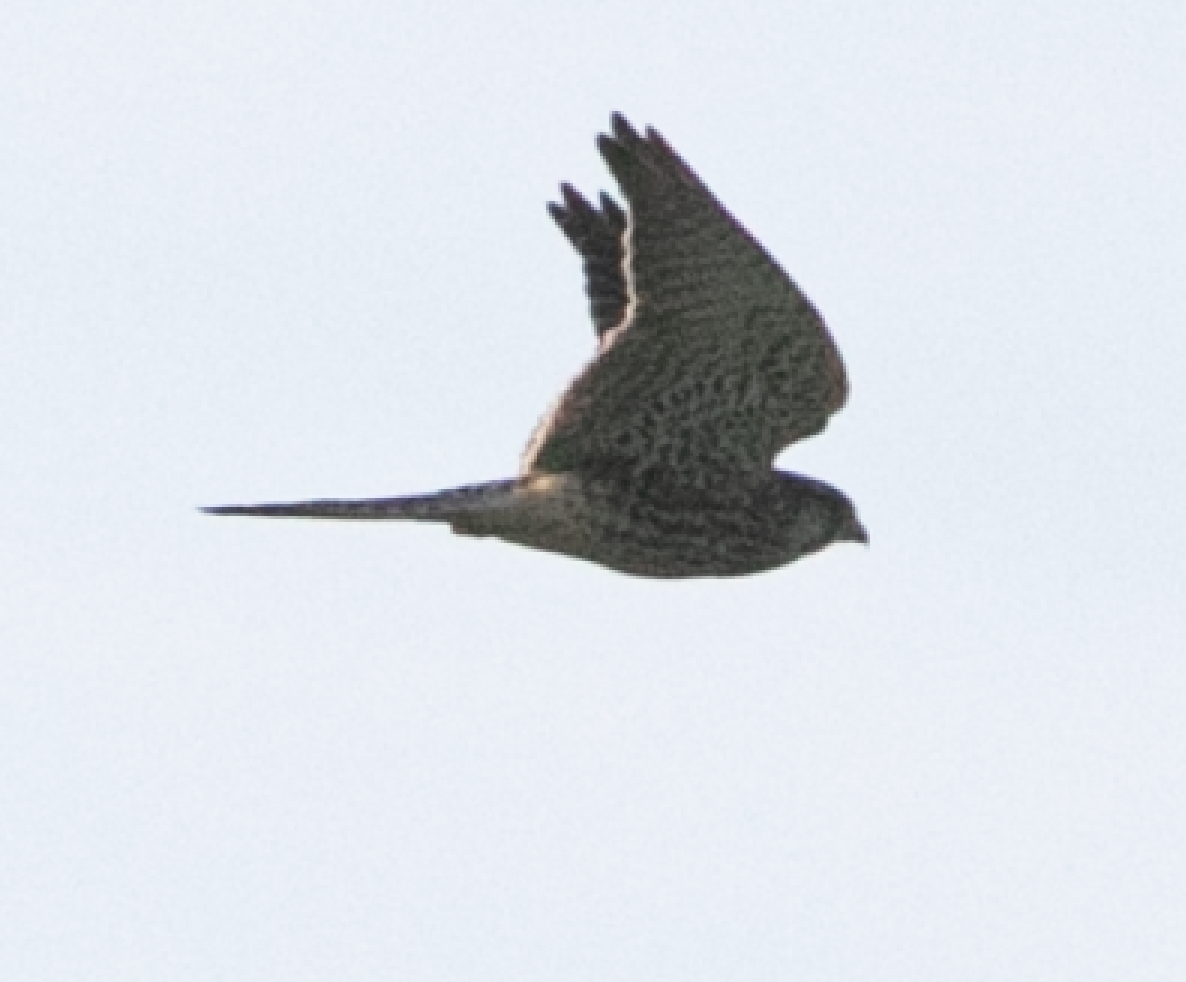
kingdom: Animalia
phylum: Chordata
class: Aves
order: Falconiformes
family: Falconidae
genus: Falco
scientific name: Falco tinnunculus
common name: Common kestrel
